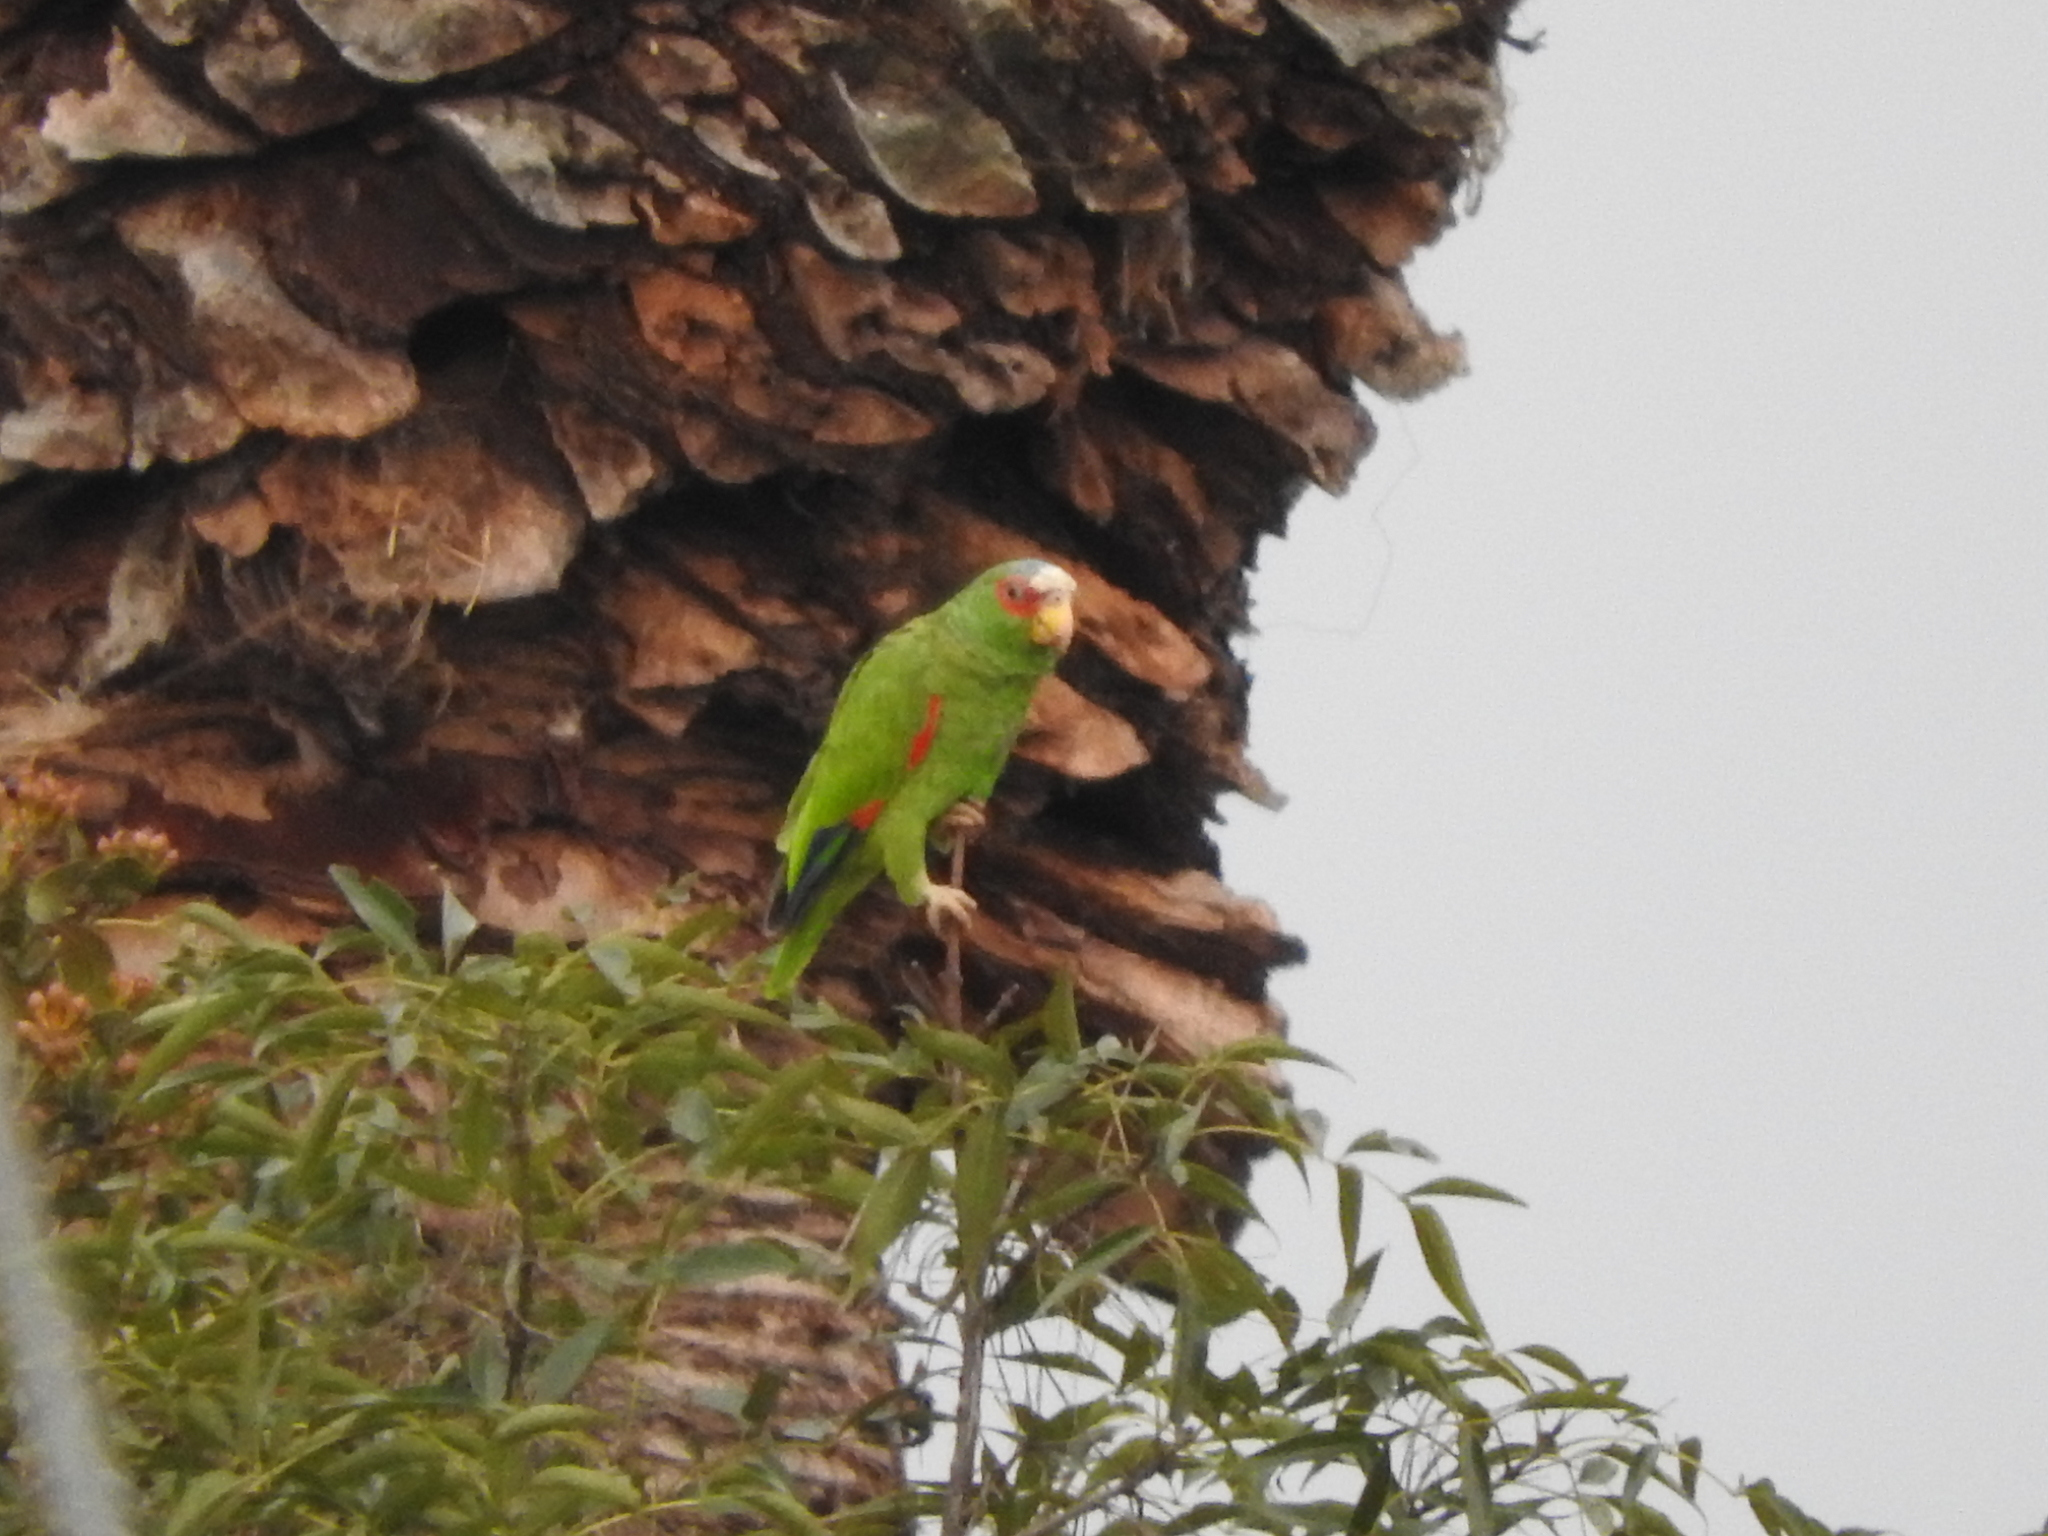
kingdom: Animalia
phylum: Chordata
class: Aves
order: Psittaciformes
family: Psittacidae
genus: Amazona
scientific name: Amazona albifrons
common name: White-fronted amazon
